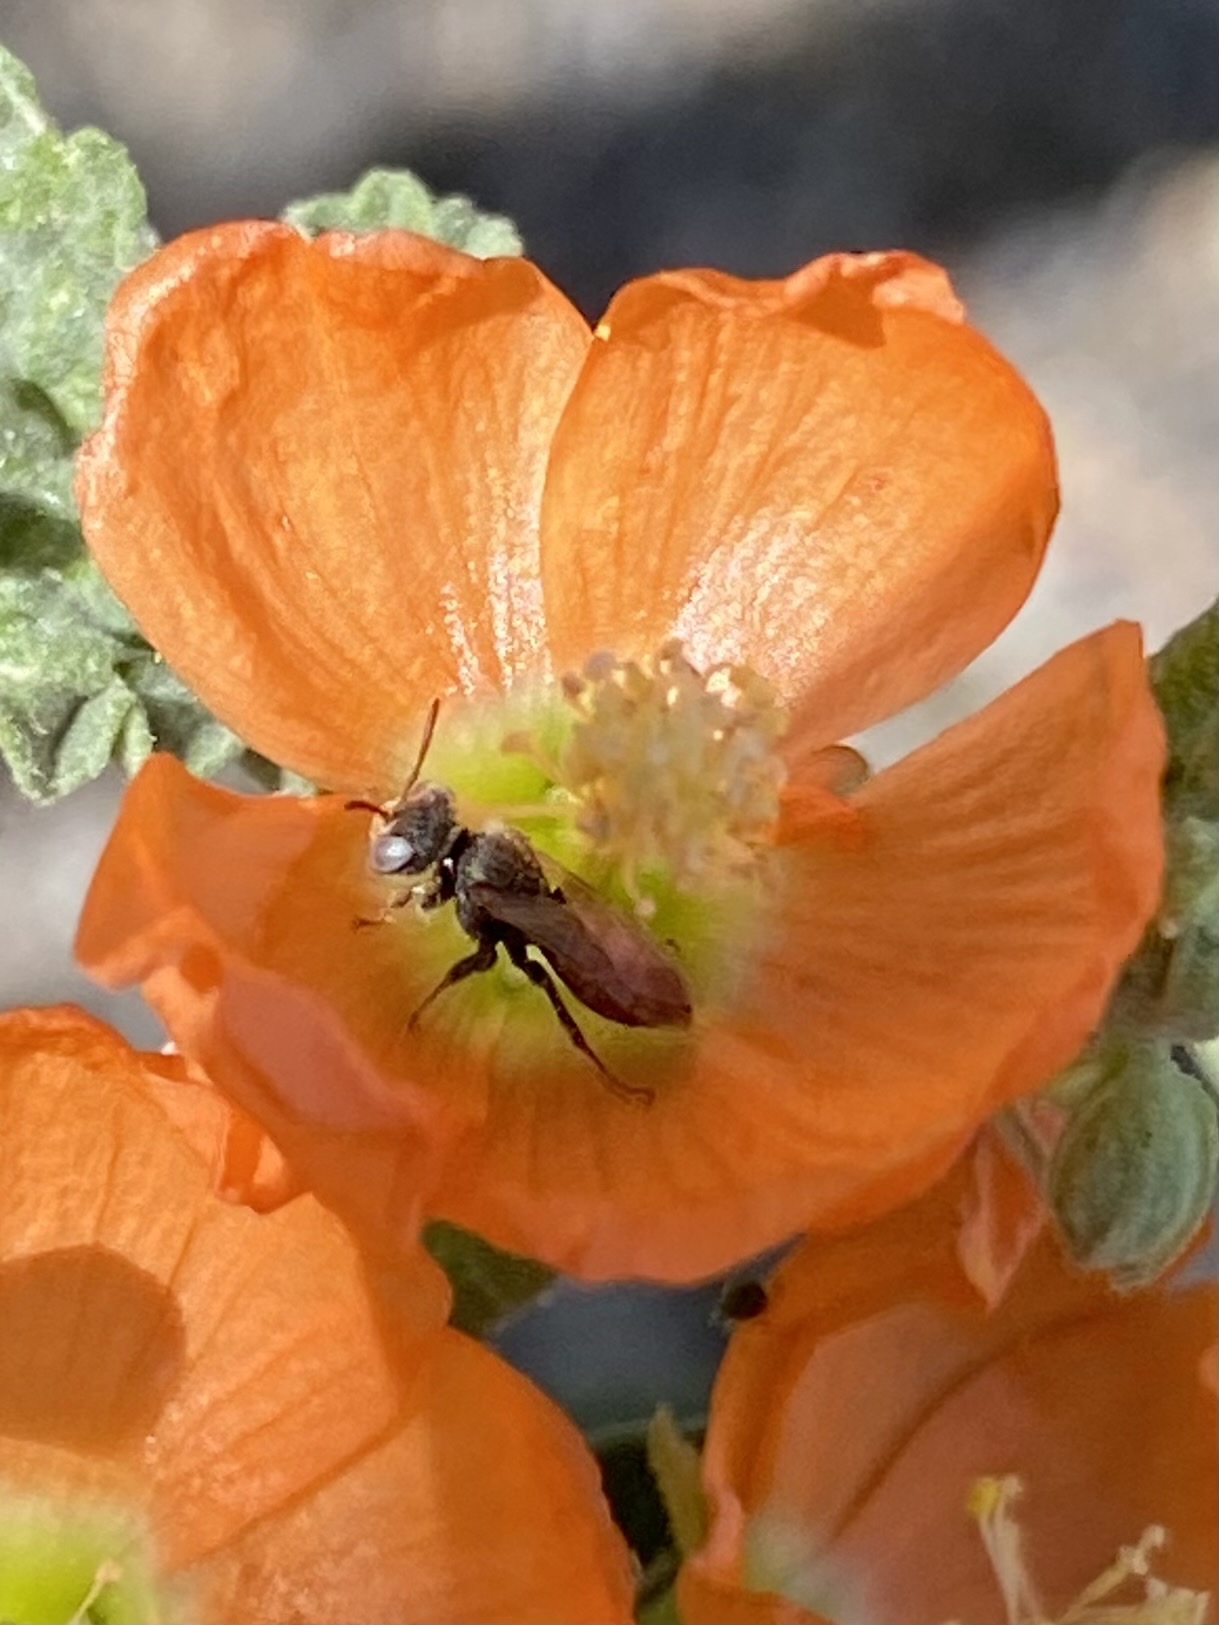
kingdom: Animalia
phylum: Arthropoda
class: Insecta
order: Hymenoptera
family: Andrenidae
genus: Macrotera
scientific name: Macrotera latior
